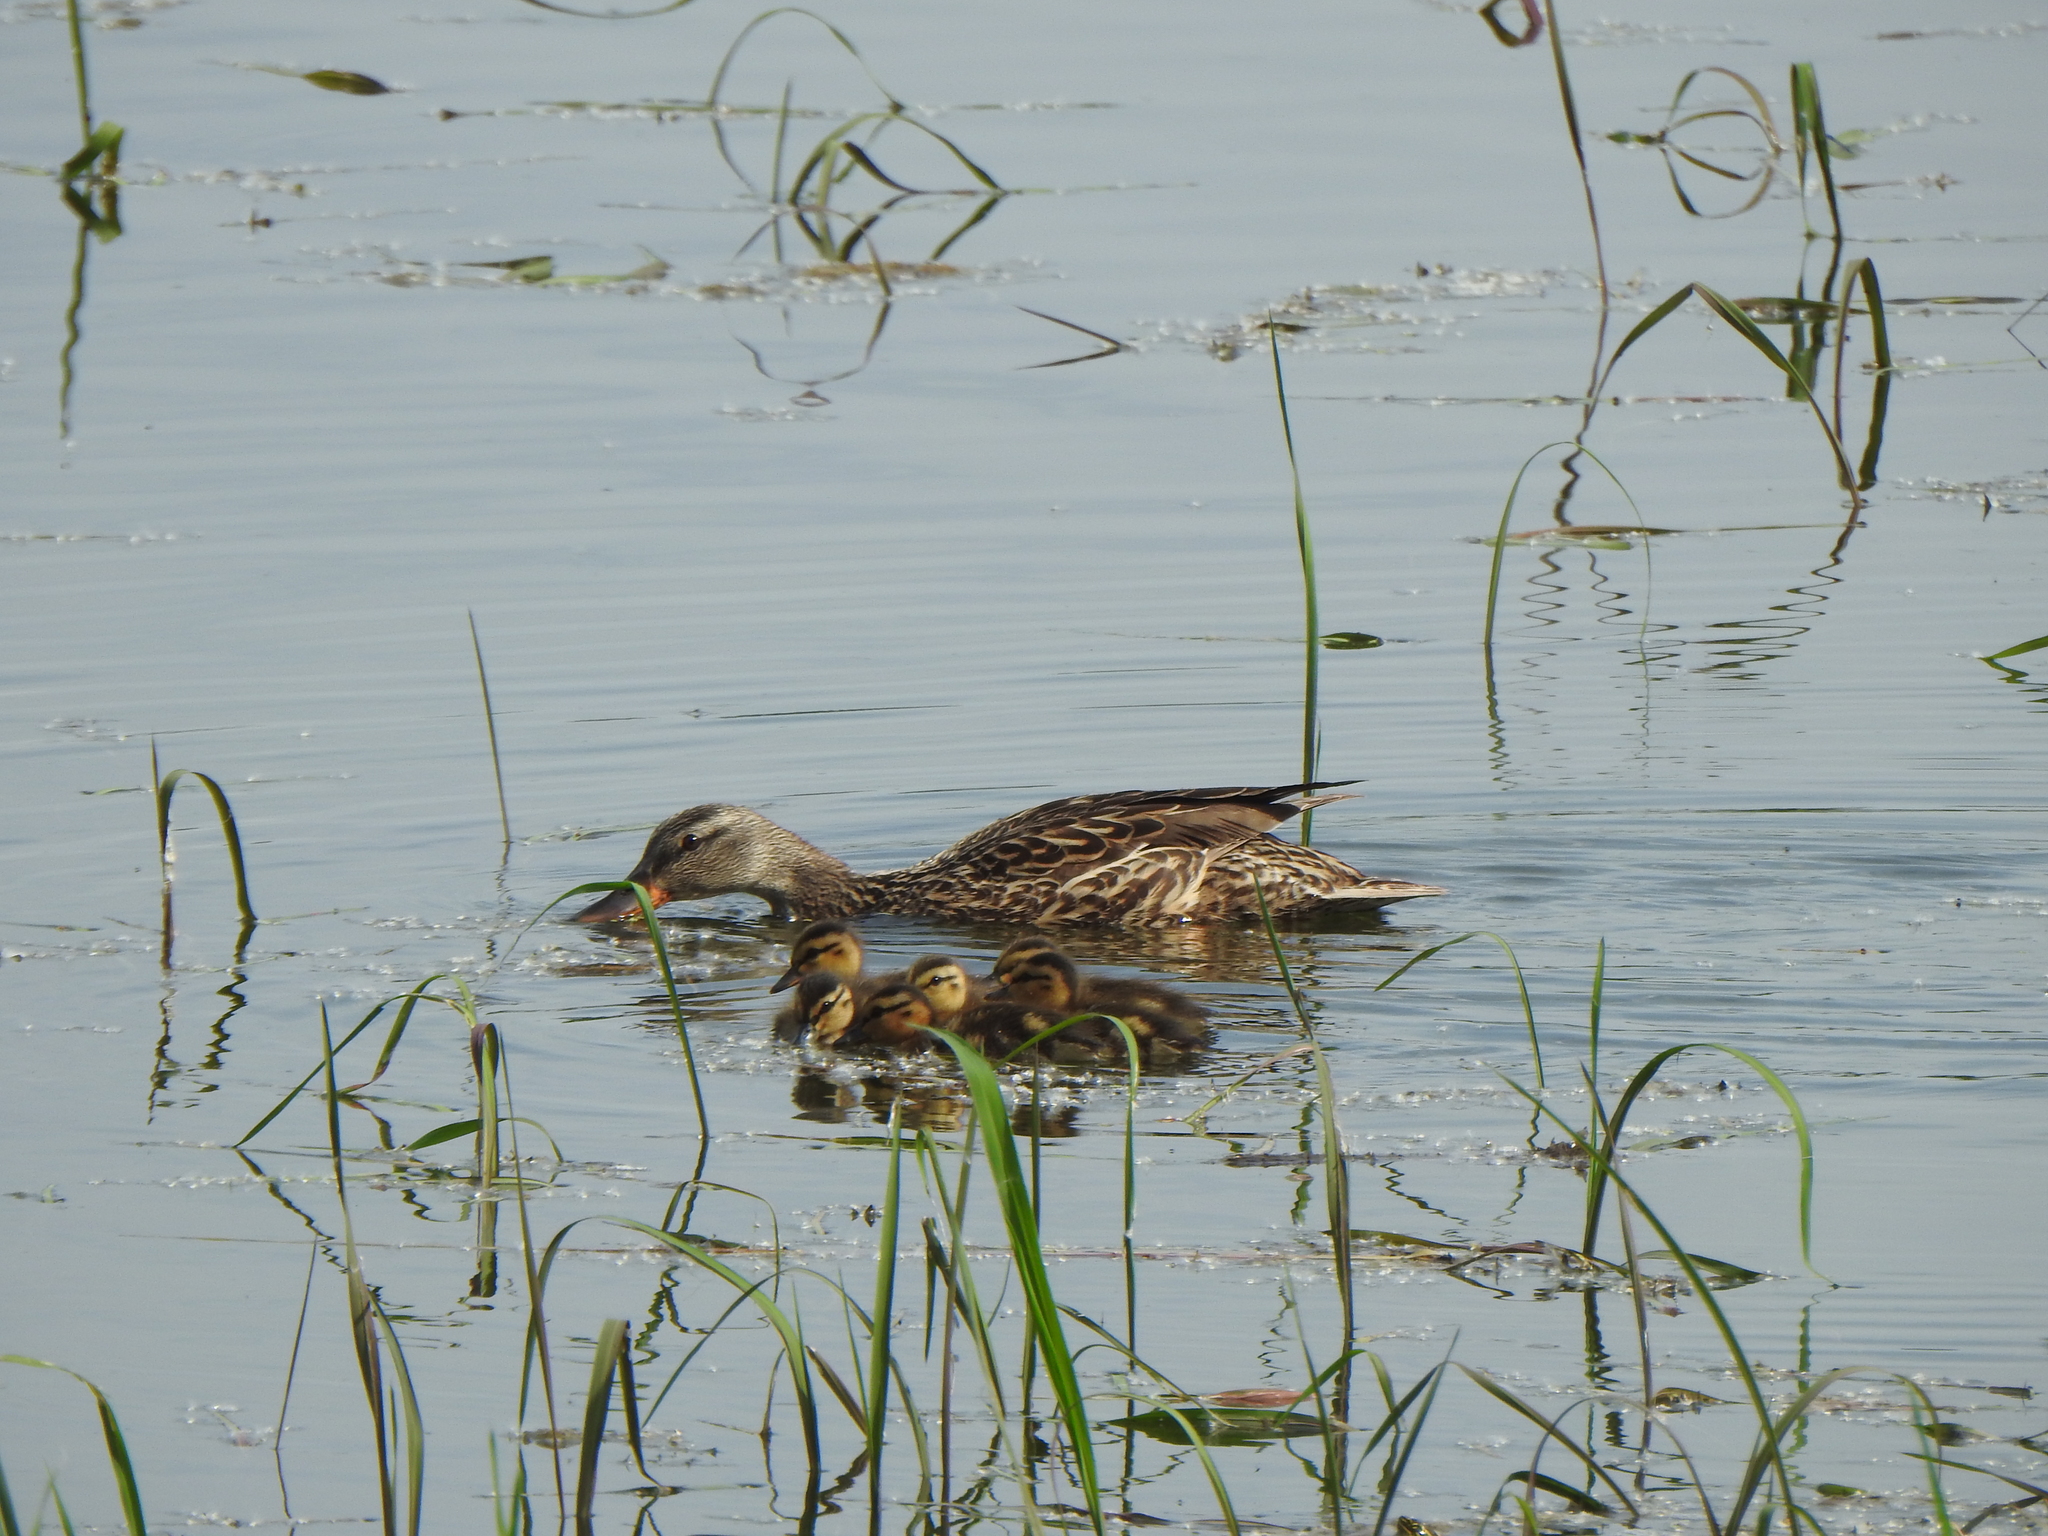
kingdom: Animalia
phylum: Chordata
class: Aves
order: Anseriformes
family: Anatidae
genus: Anas
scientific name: Anas platyrhynchos
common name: Mallard
